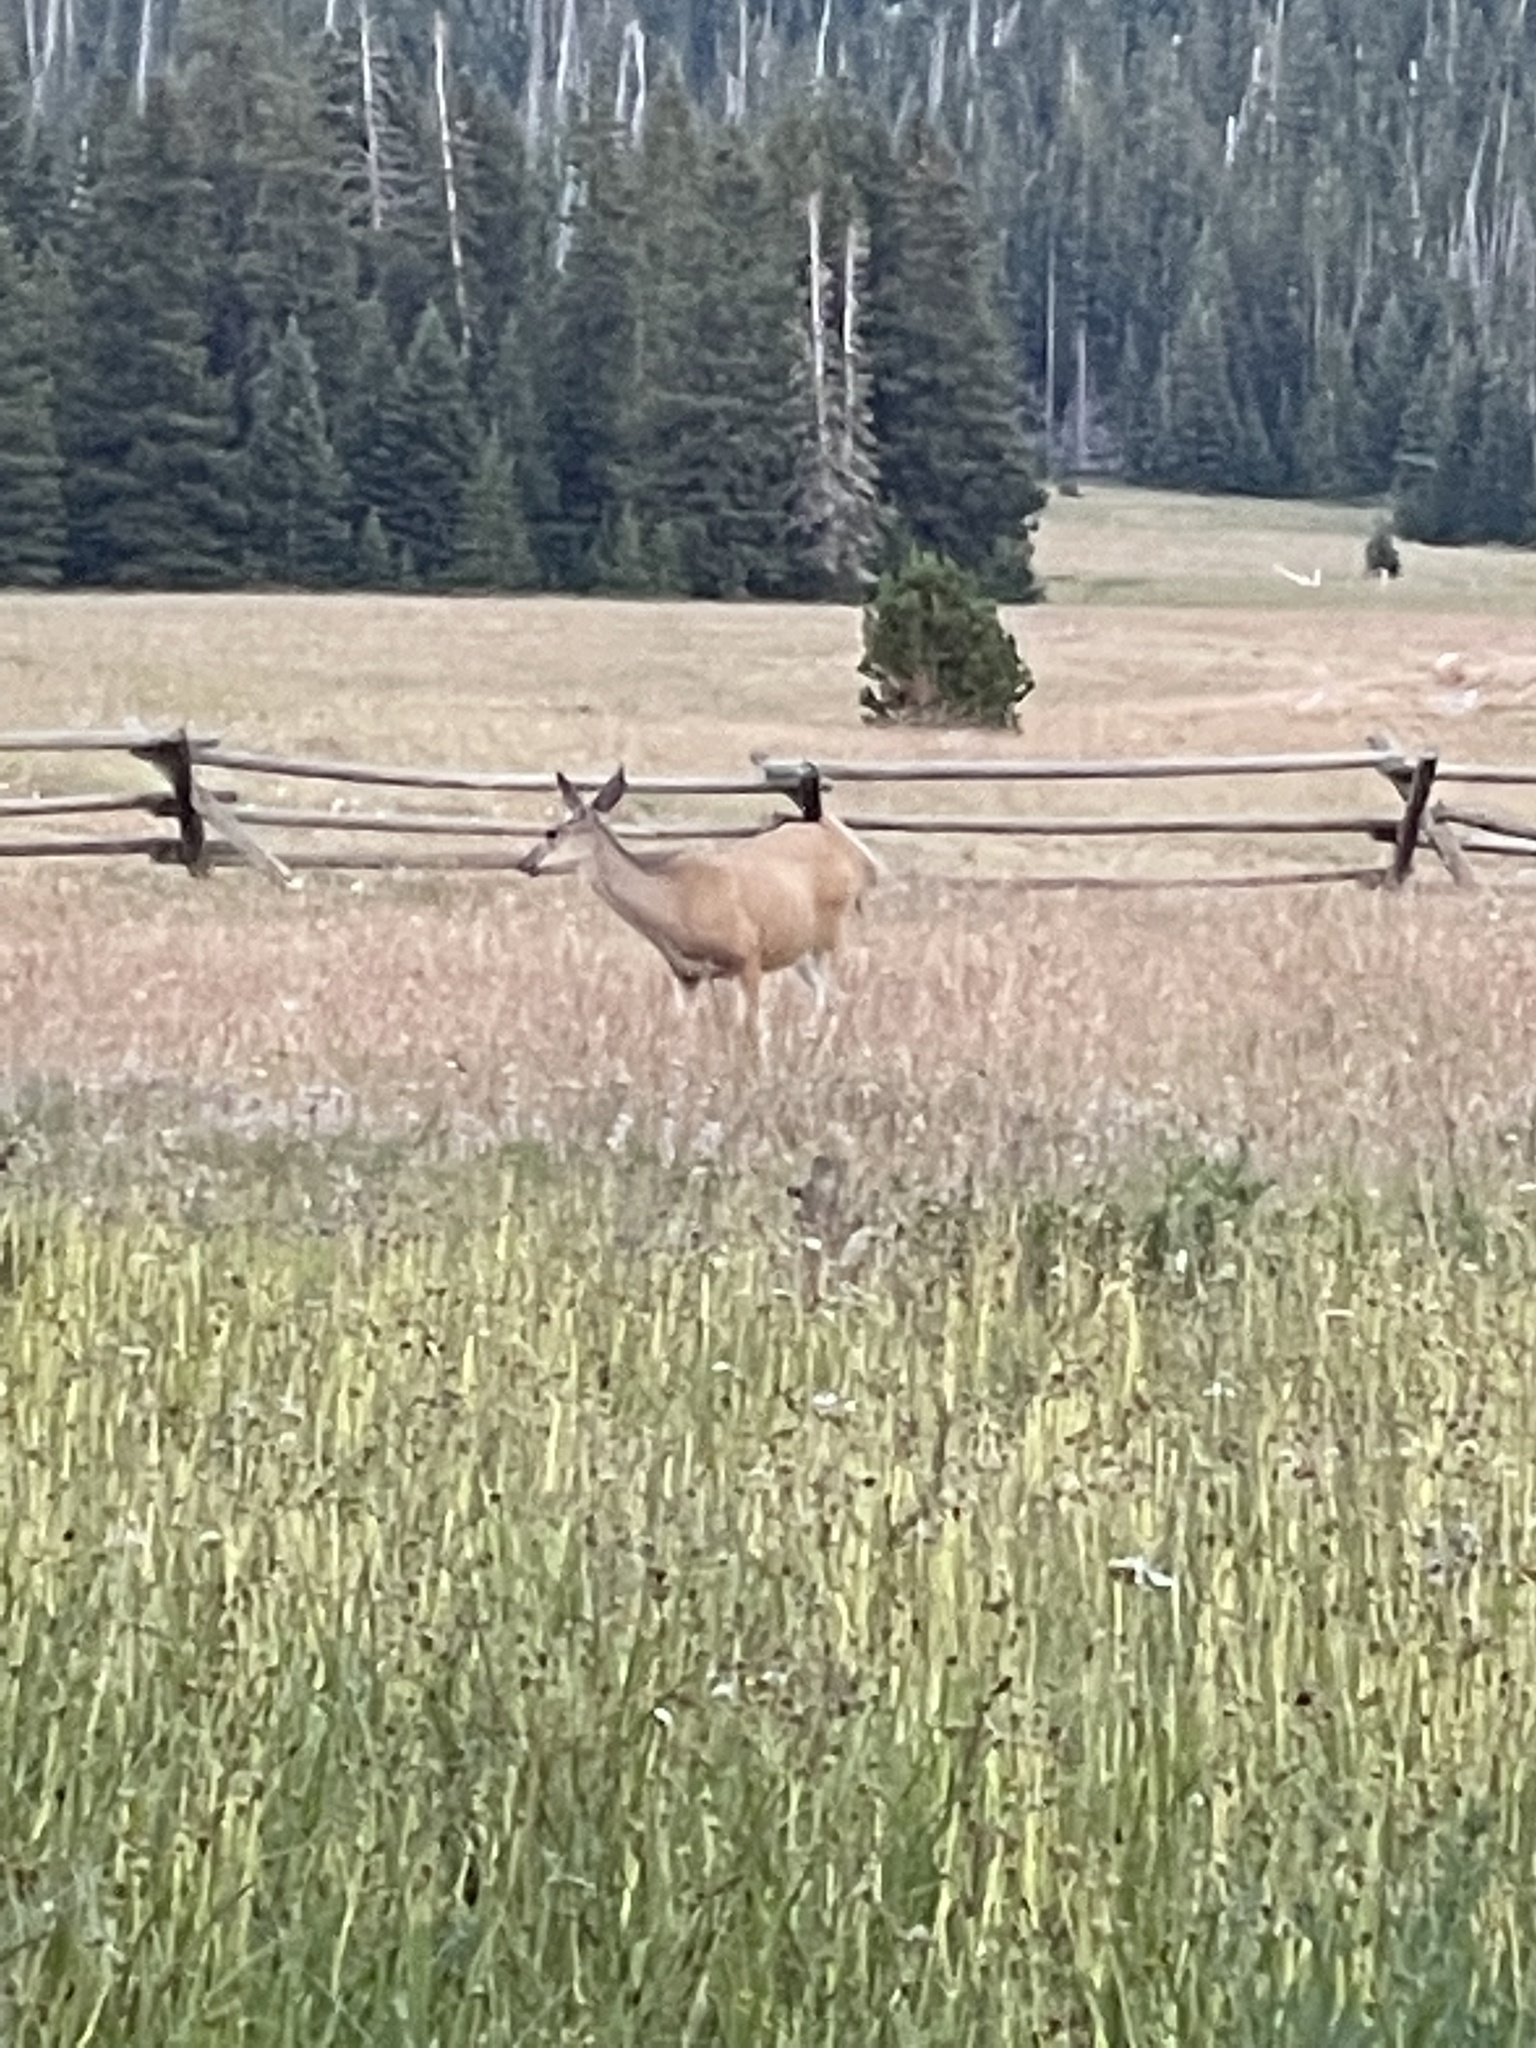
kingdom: Animalia
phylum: Chordata
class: Mammalia
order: Artiodactyla
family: Cervidae
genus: Odocoileus
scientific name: Odocoileus hemionus
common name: Mule deer
